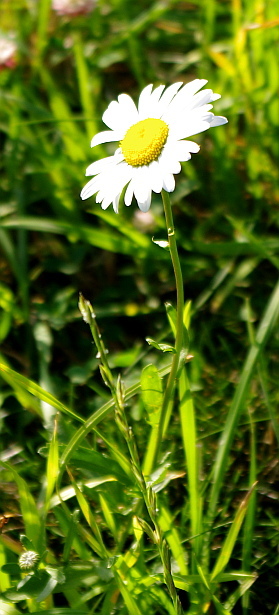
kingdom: Plantae
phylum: Tracheophyta
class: Magnoliopsida
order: Asterales
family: Asteraceae
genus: Leucanthemum
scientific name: Leucanthemum vulgare
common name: Oxeye daisy
